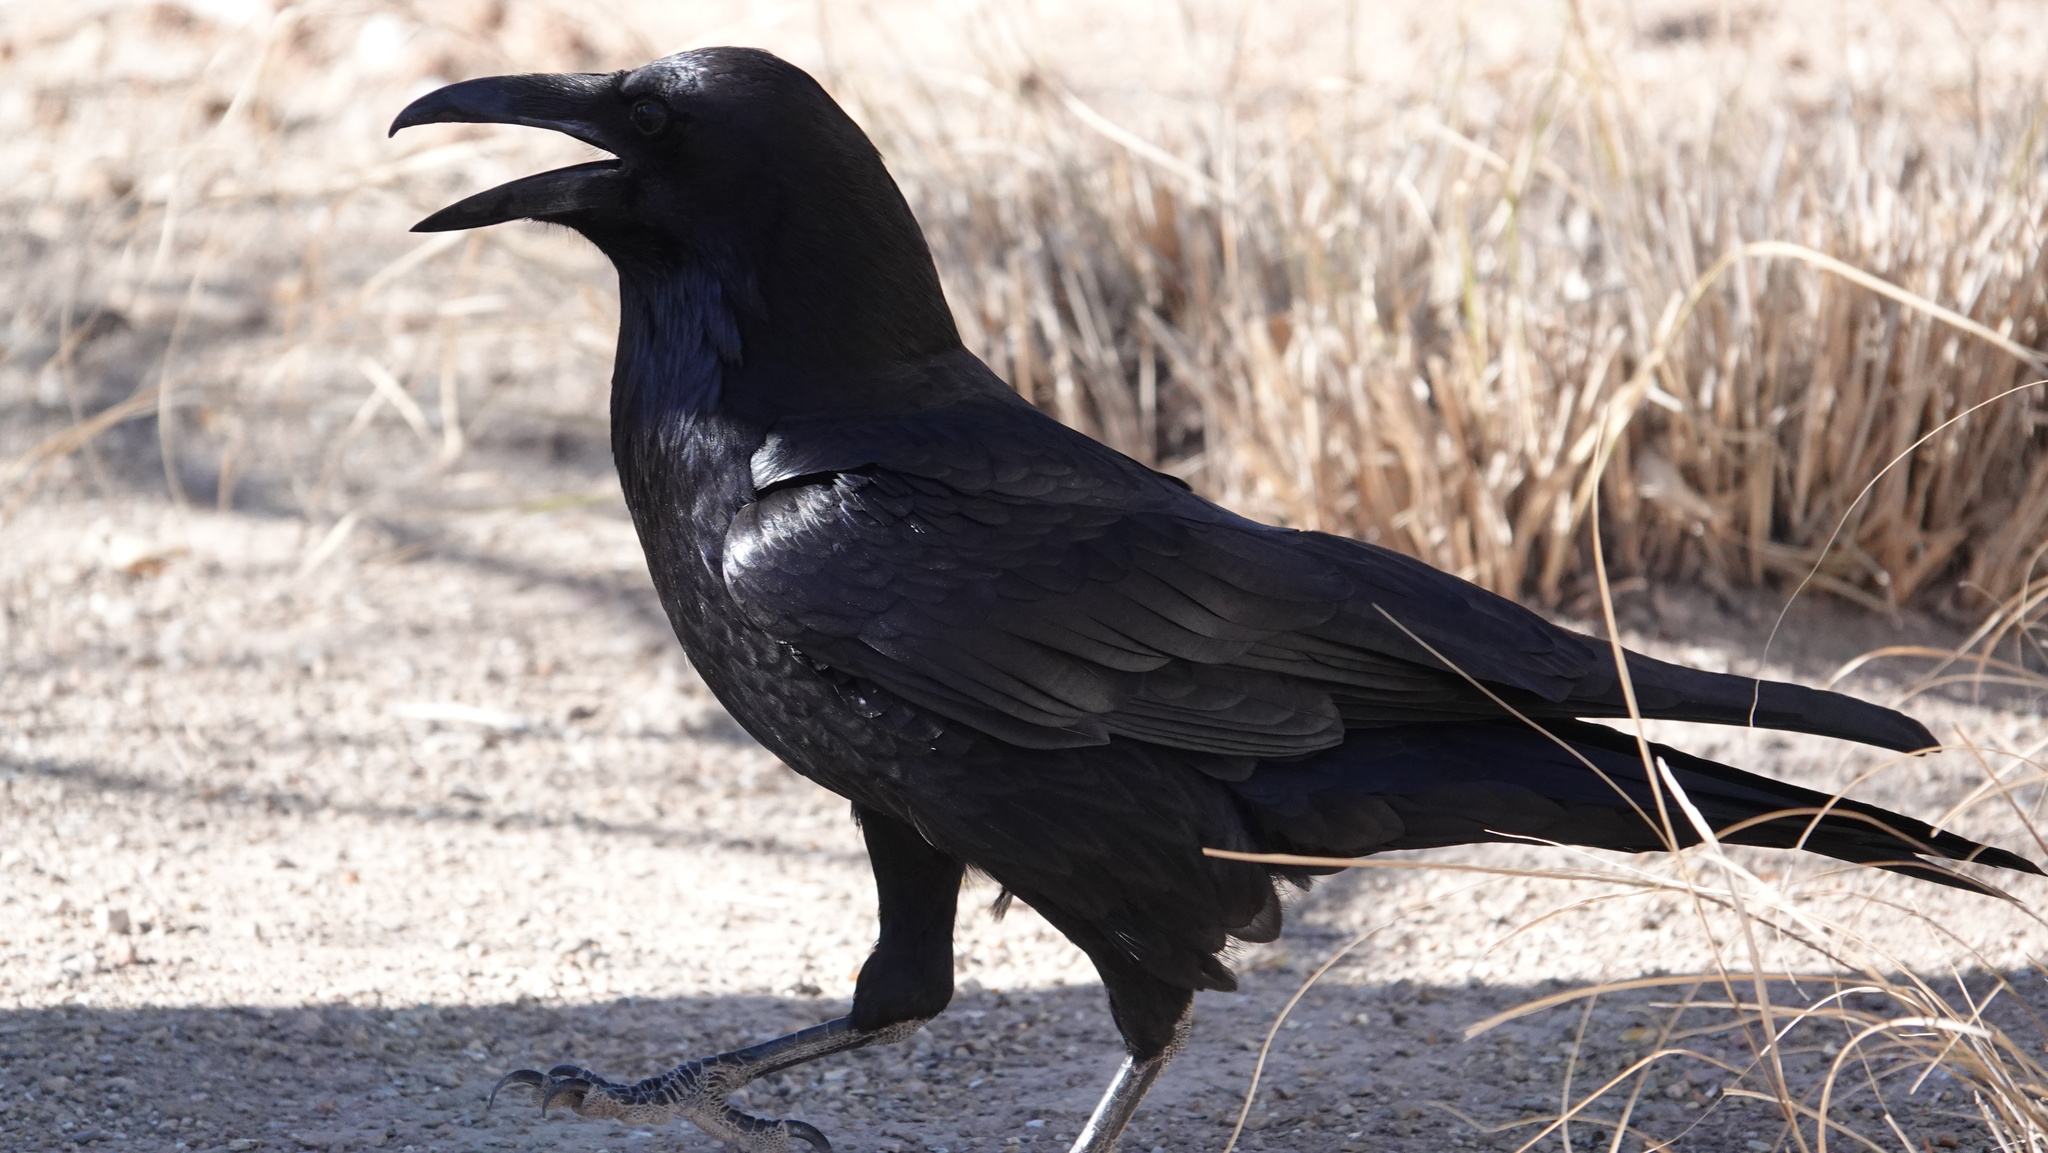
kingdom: Animalia
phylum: Chordata
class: Aves
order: Passeriformes
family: Corvidae
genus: Corvus
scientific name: Corvus corax
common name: Common raven
